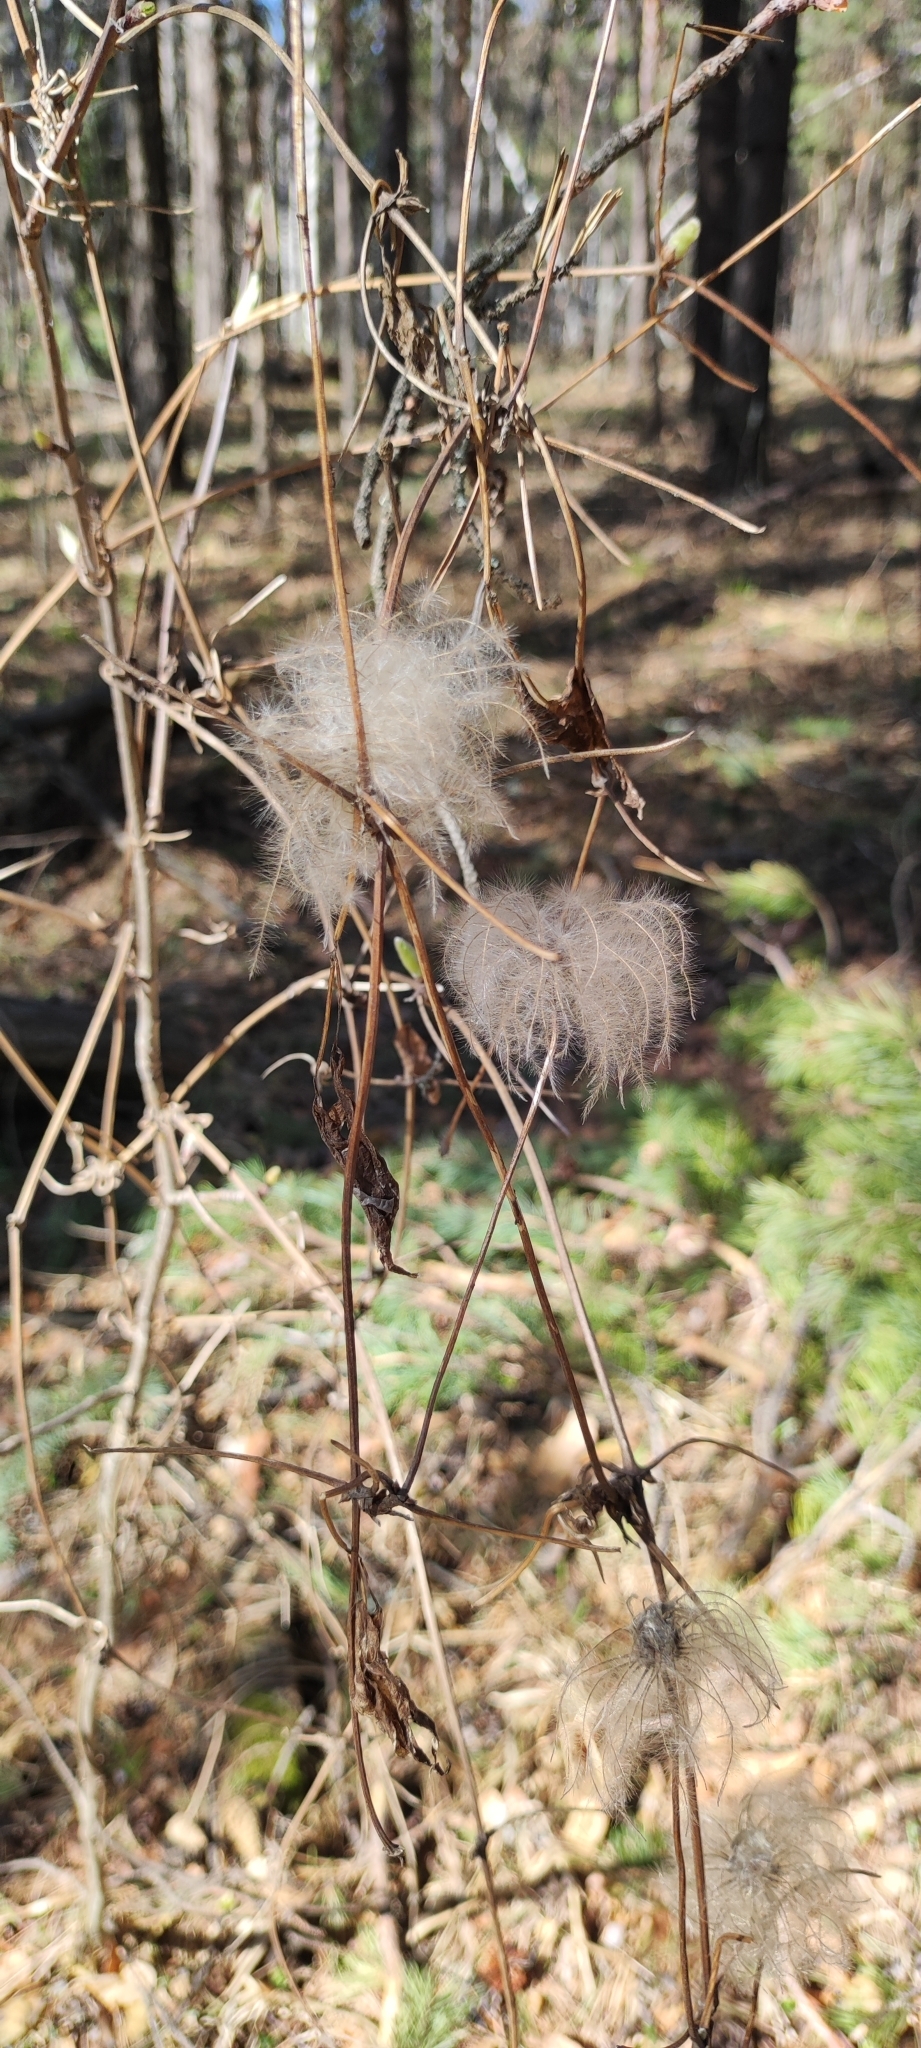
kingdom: Plantae
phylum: Tracheophyta
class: Magnoliopsida
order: Ranunculales
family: Ranunculaceae
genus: Clematis
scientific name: Clematis sibirica
